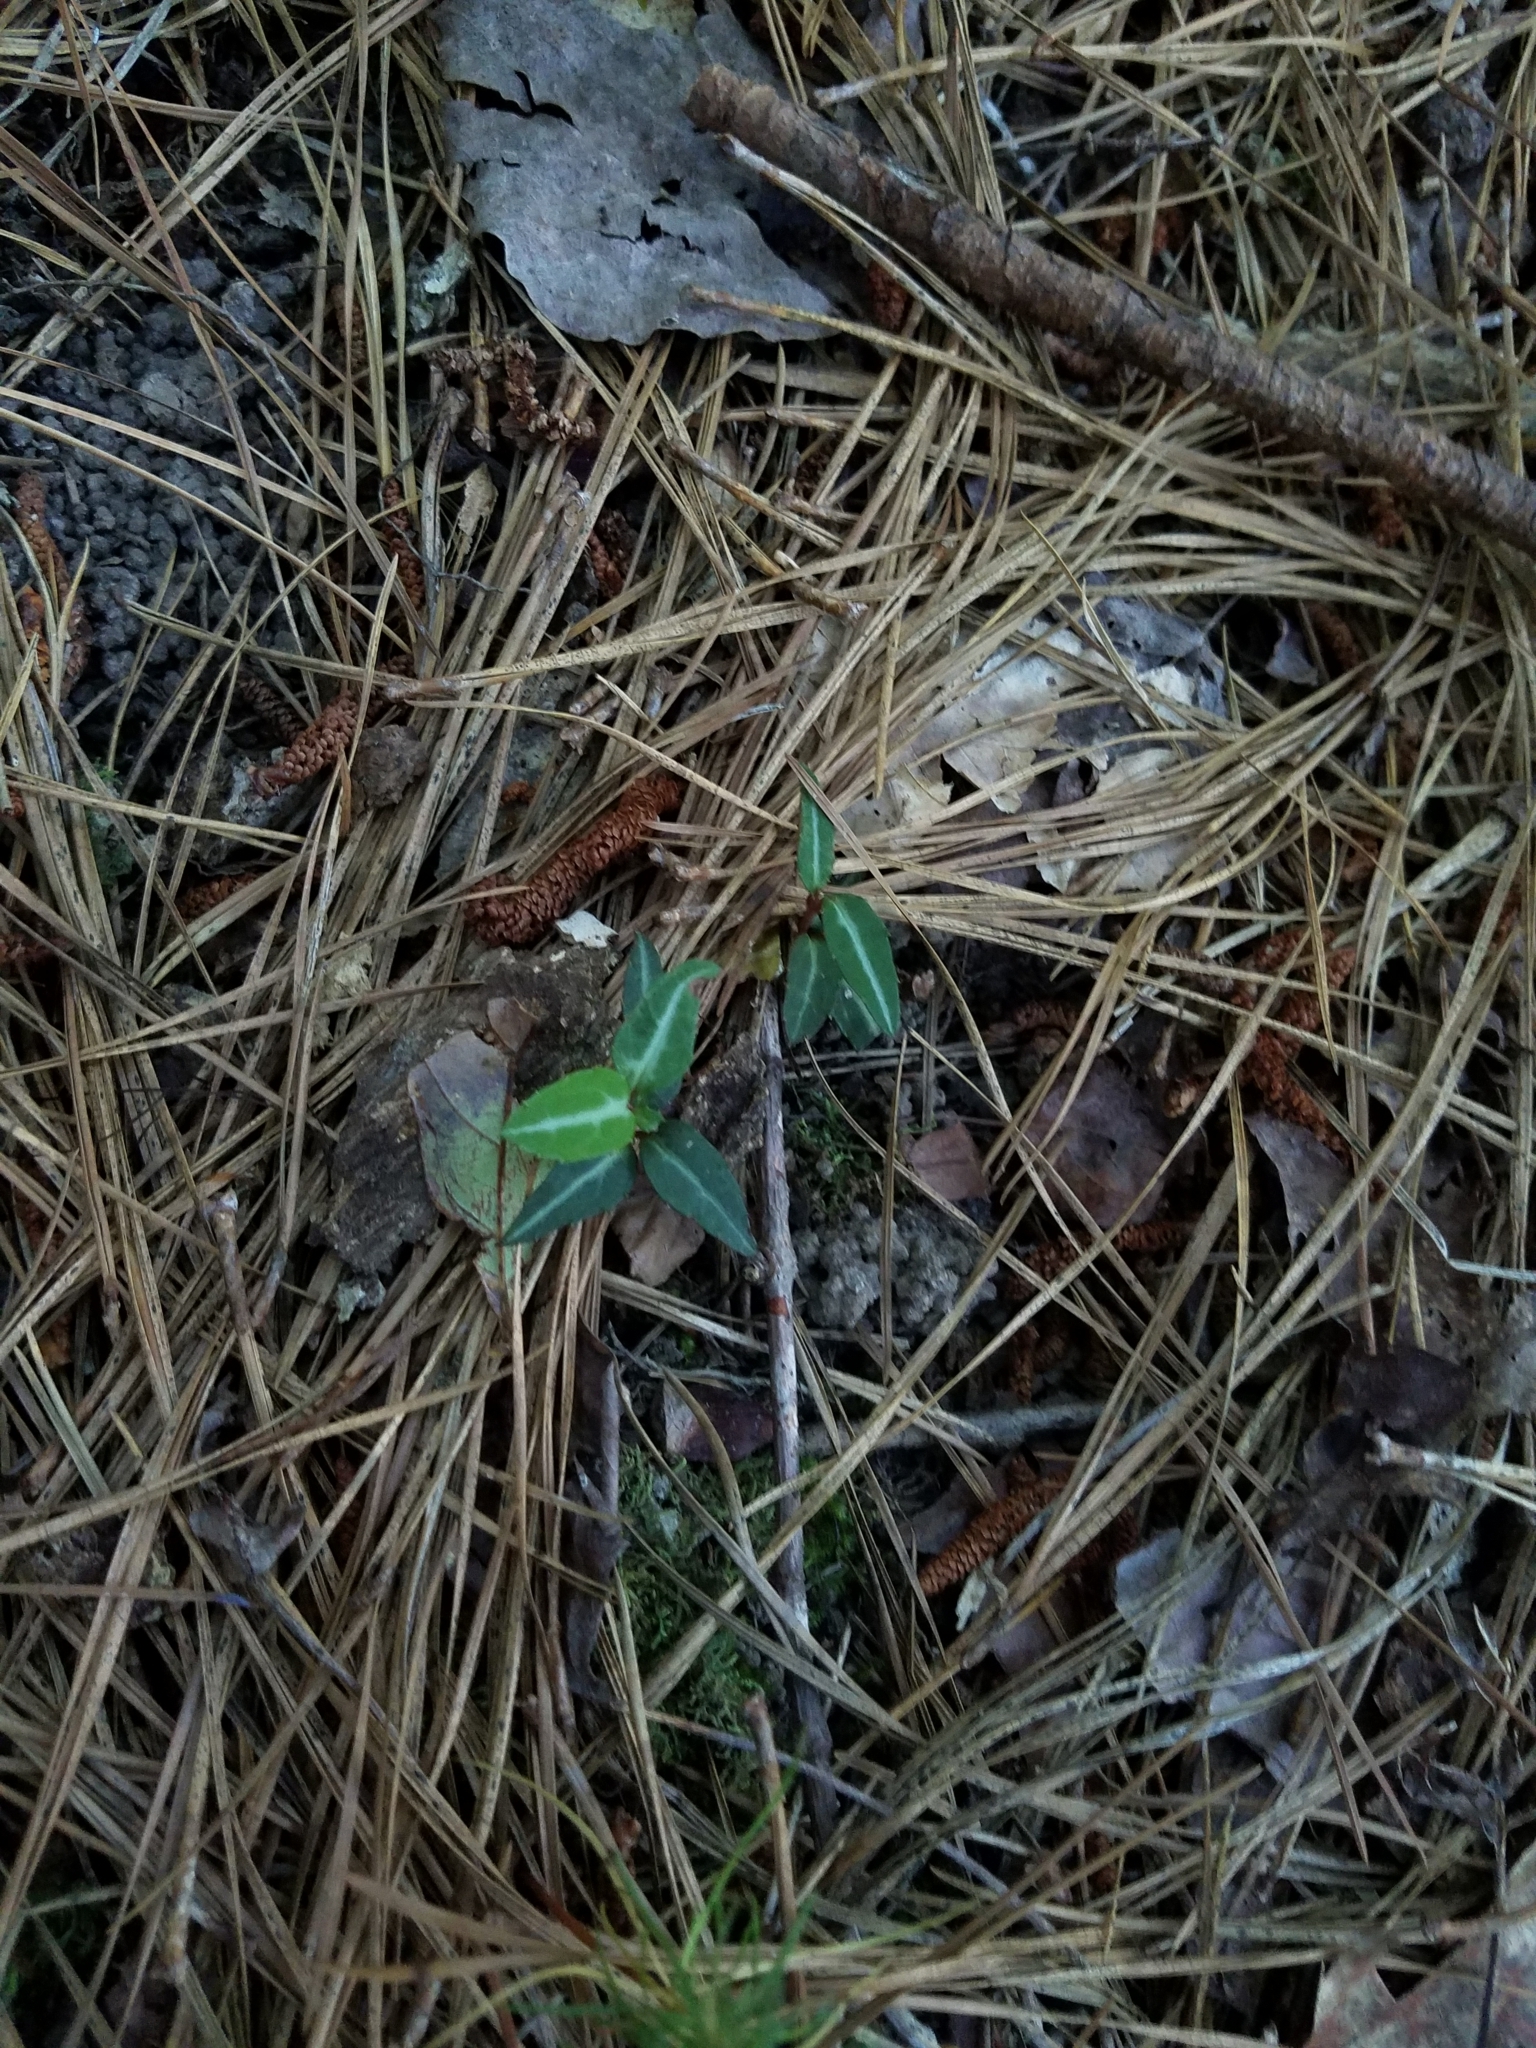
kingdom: Plantae
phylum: Tracheophyta
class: Magnoliopsida
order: Ericales
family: Ericaceae
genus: Chimaphila
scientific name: Chimaphila maculata
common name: Spotted pipsissewa
